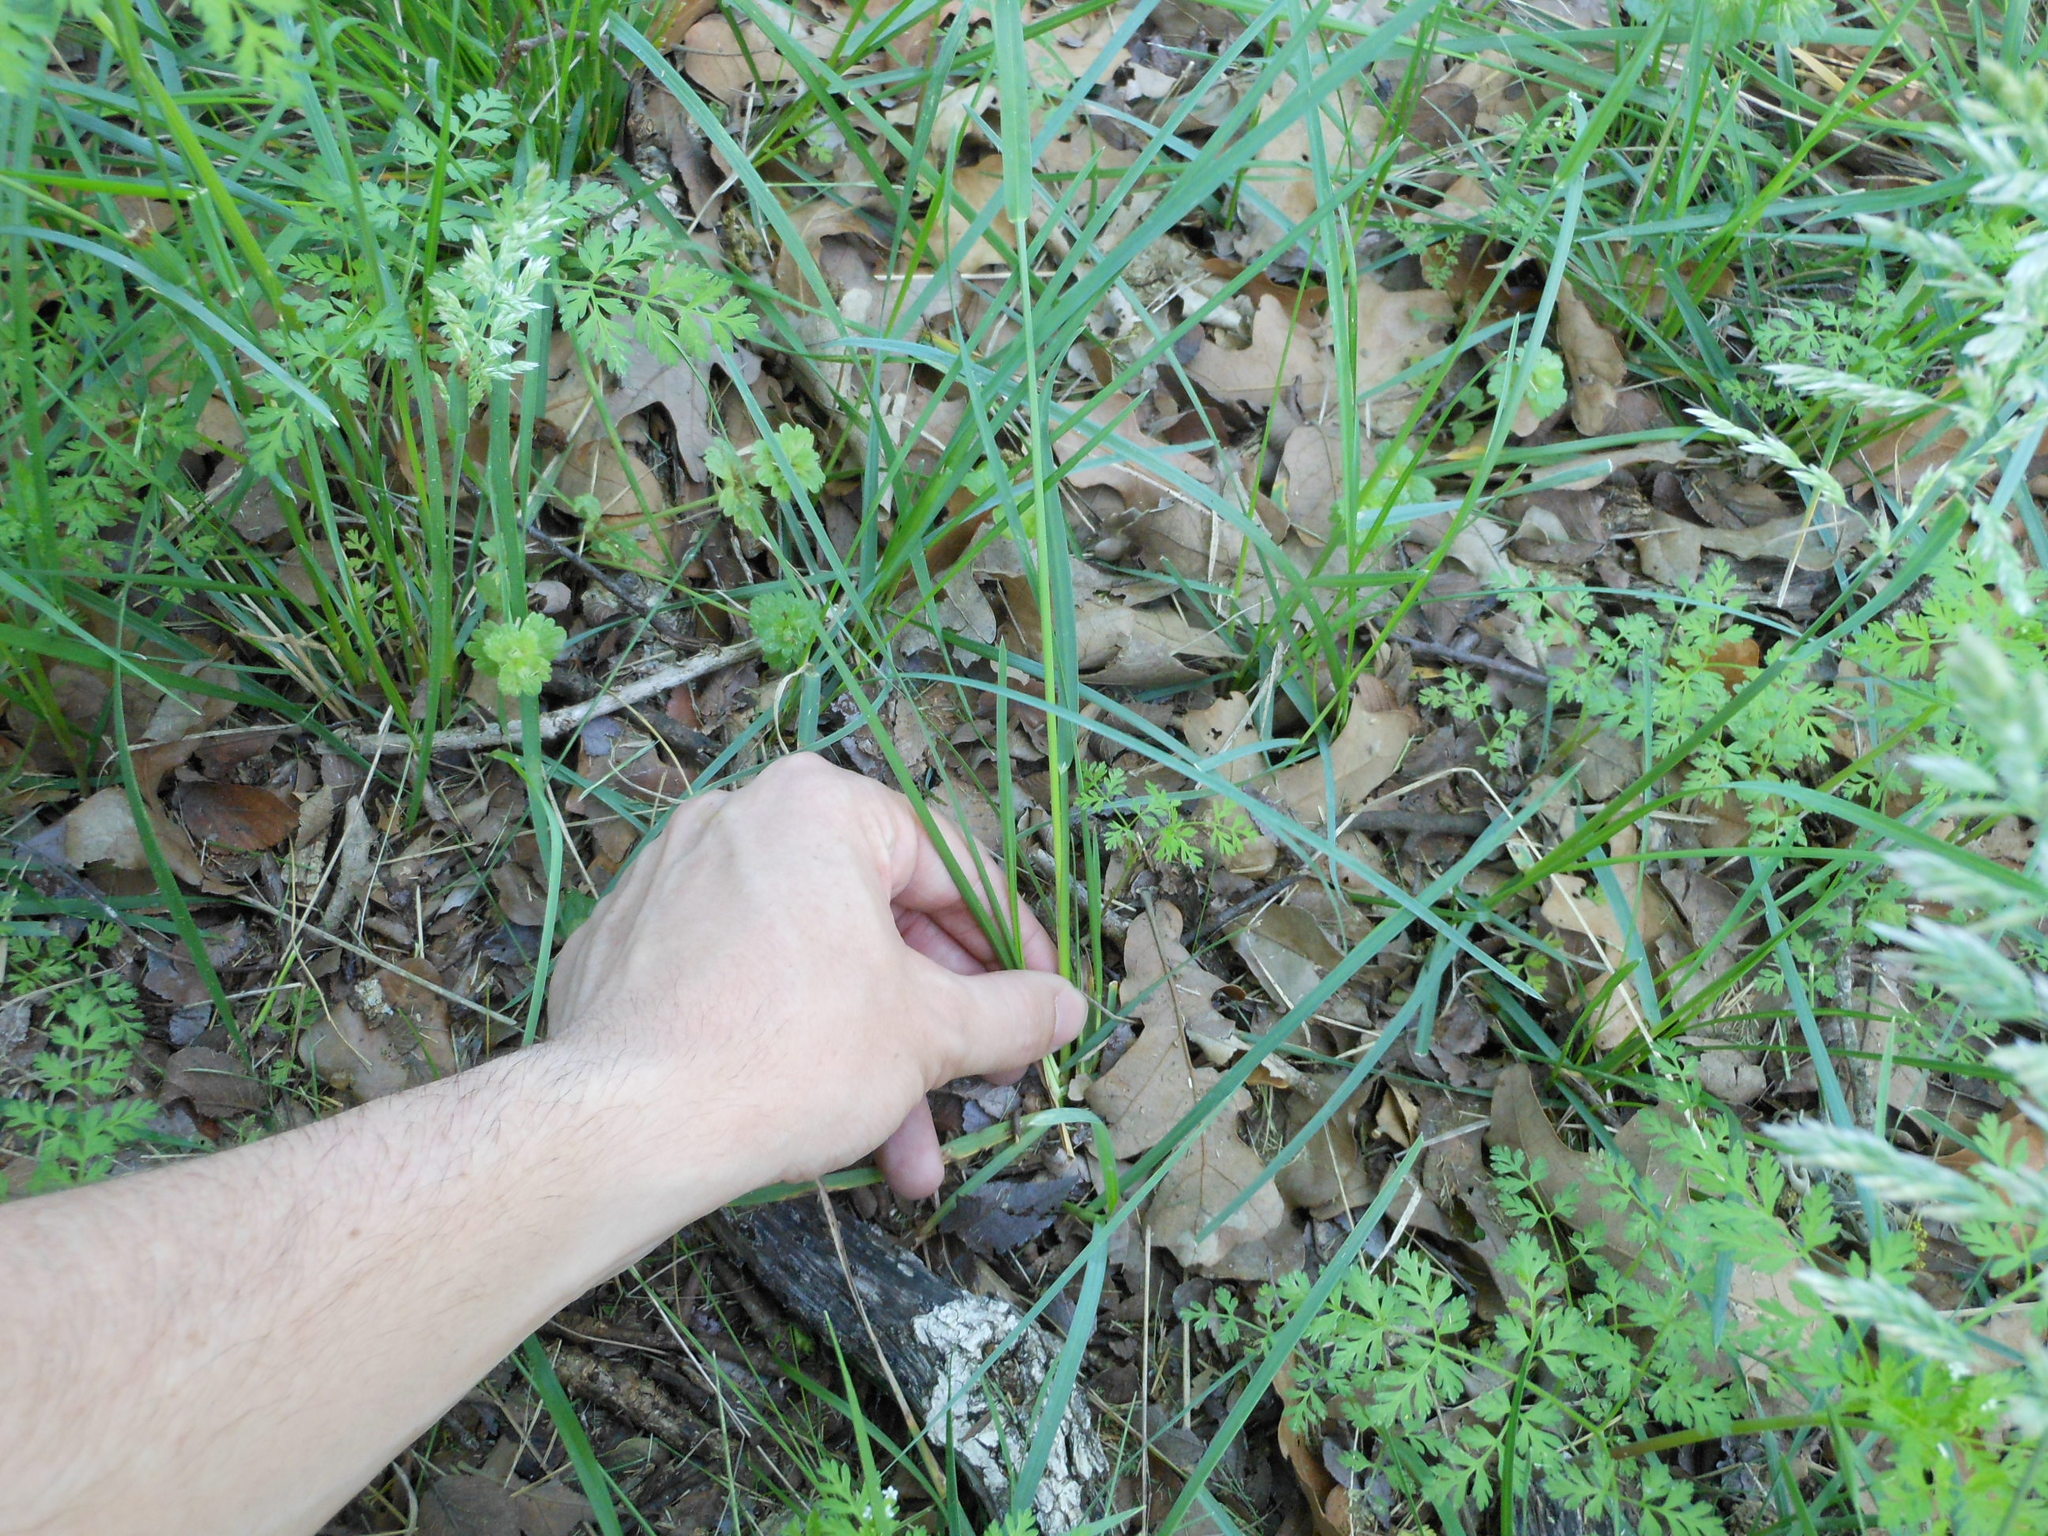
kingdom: Plantae
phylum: Tracheophyta
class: Liliopsida
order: Poales
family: Poaceae
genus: Poa
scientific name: Poa arachnifera
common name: Texas bluegrass
